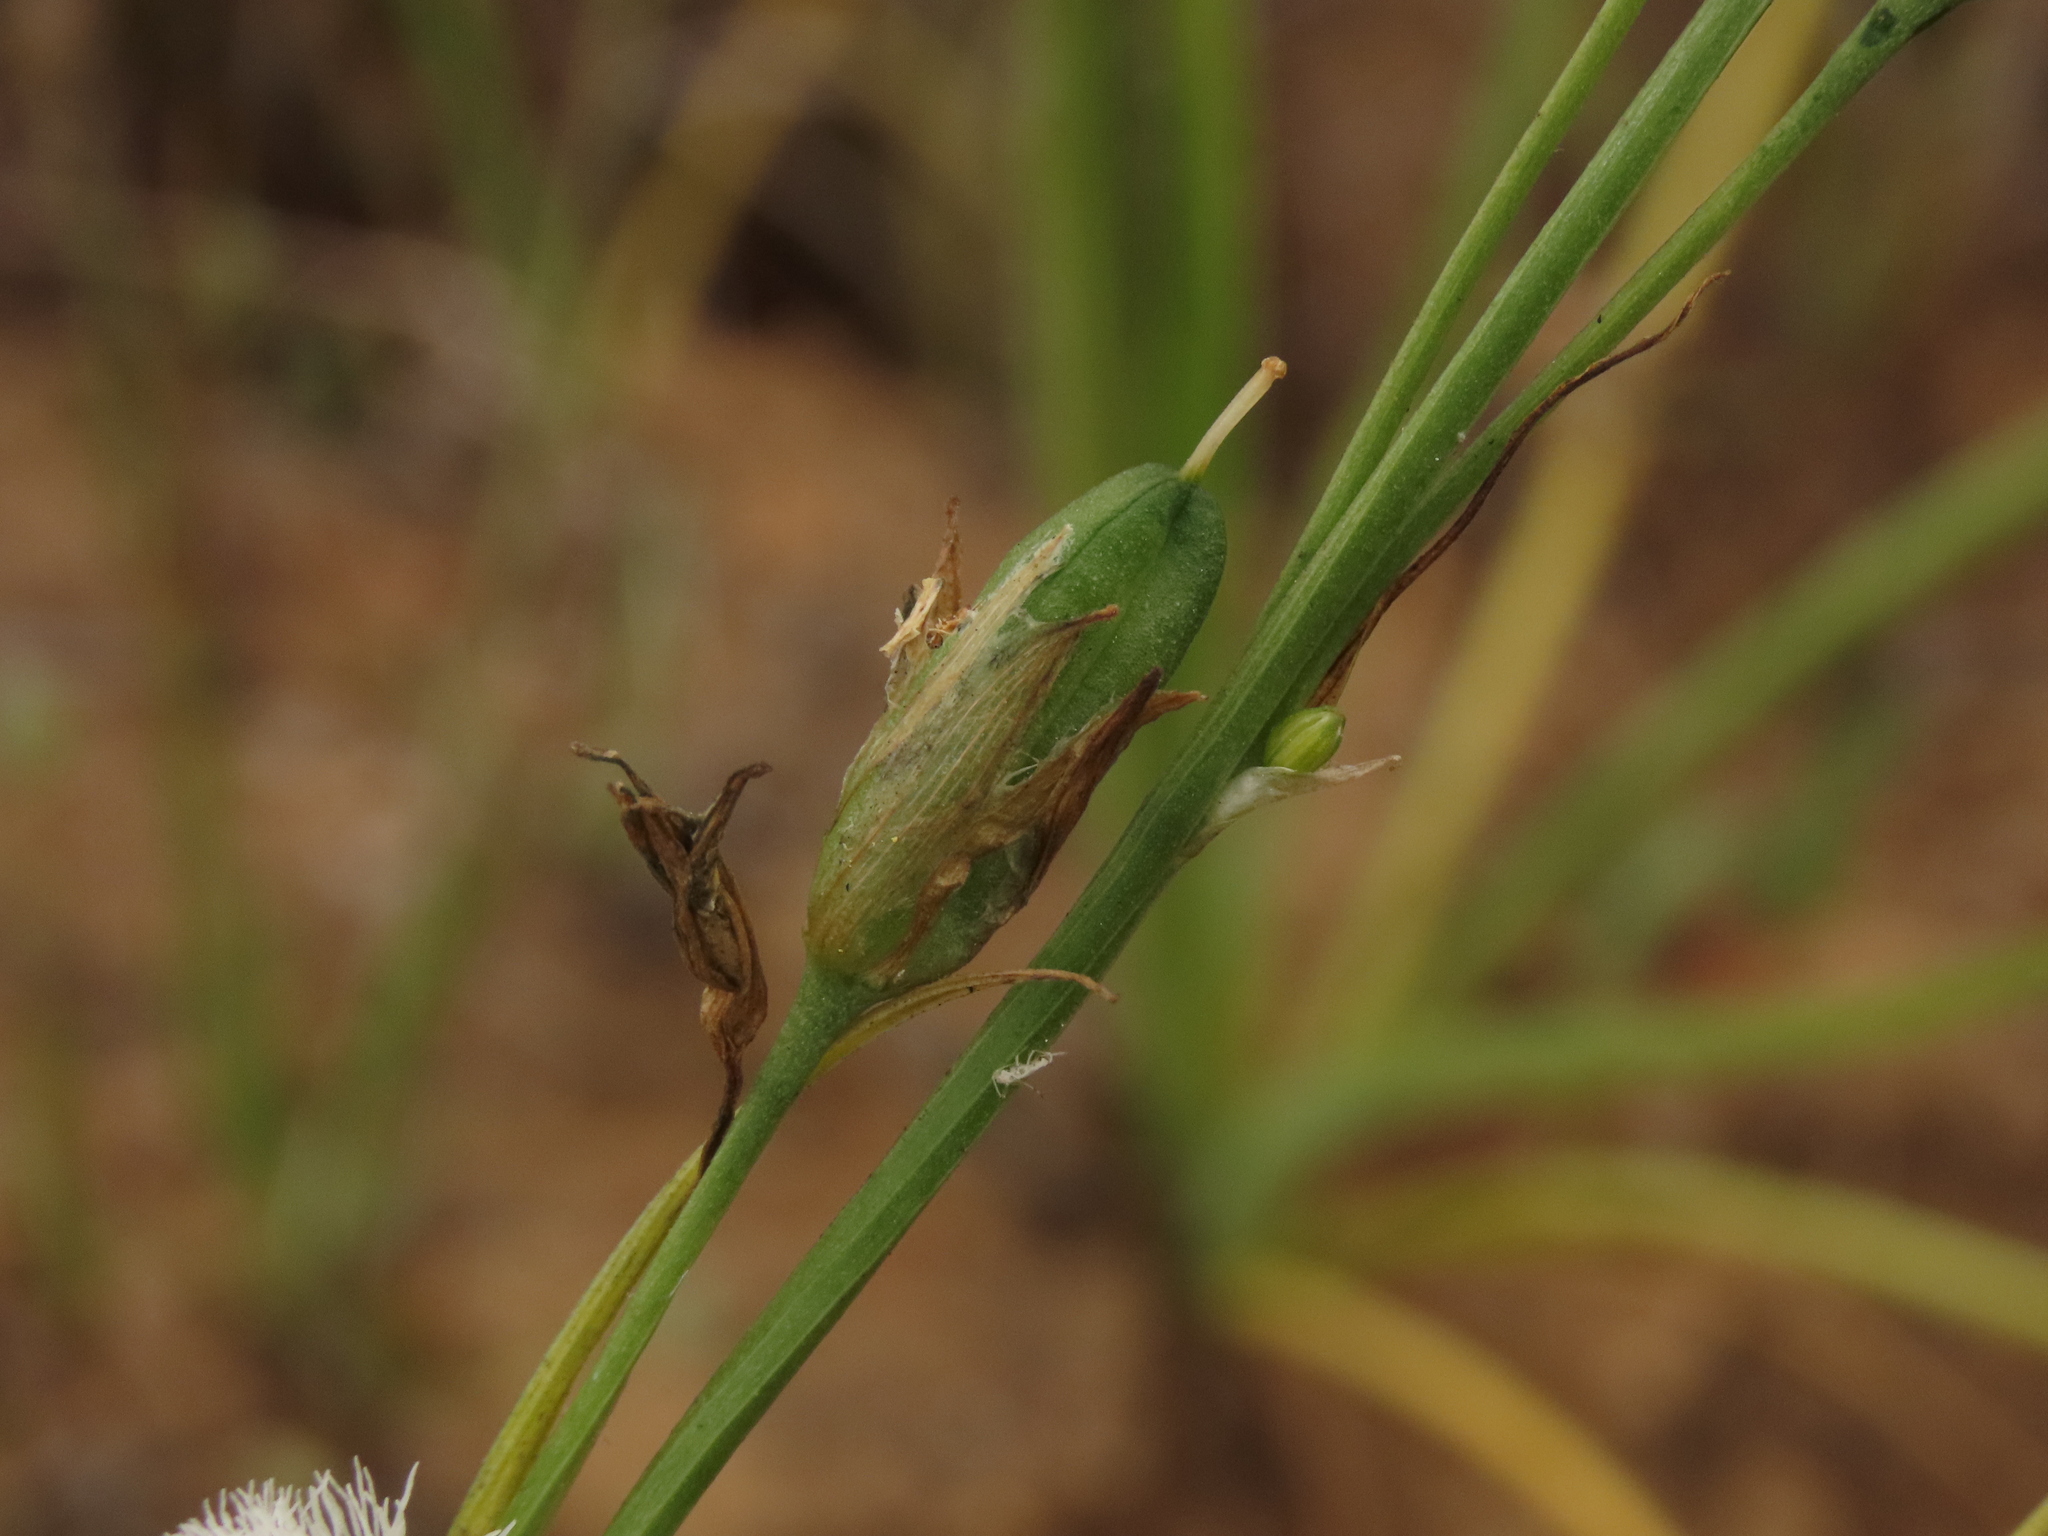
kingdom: Plantae
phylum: Tracheophyta
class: Liliopsida
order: Asparagales
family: Asparagaceae
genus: Trichopetalum
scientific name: Trichopetalum plumosum
